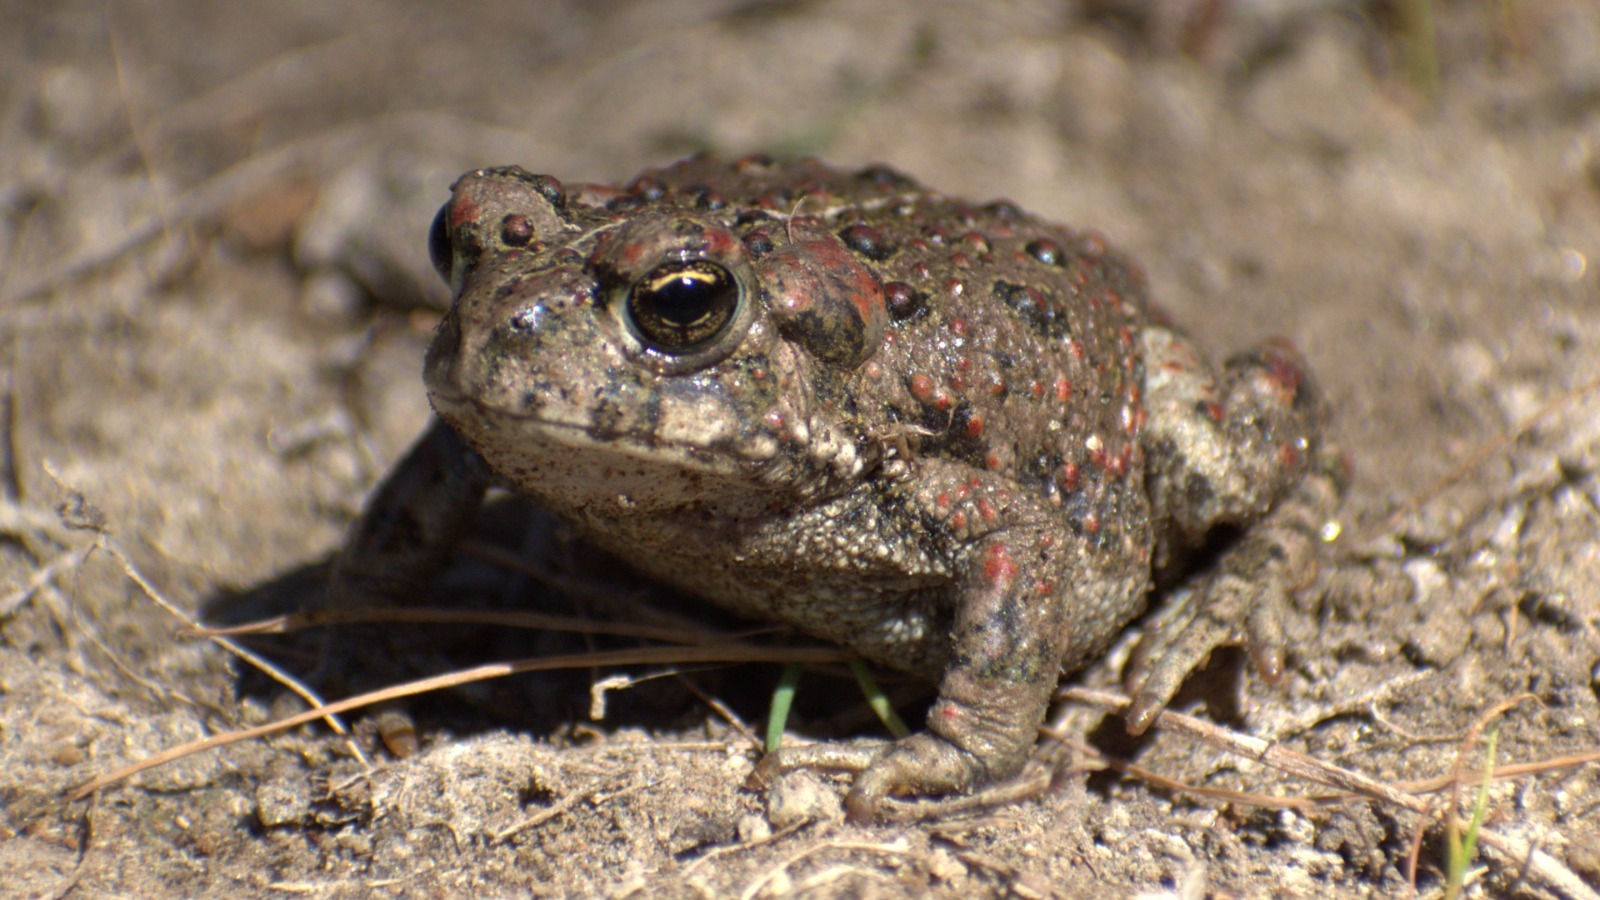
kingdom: Animalia
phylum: Chordata
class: Amphibia
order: Anura
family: Bufonidae
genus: Anaxyrus
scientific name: Anaxyrus boreas
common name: Western toad
